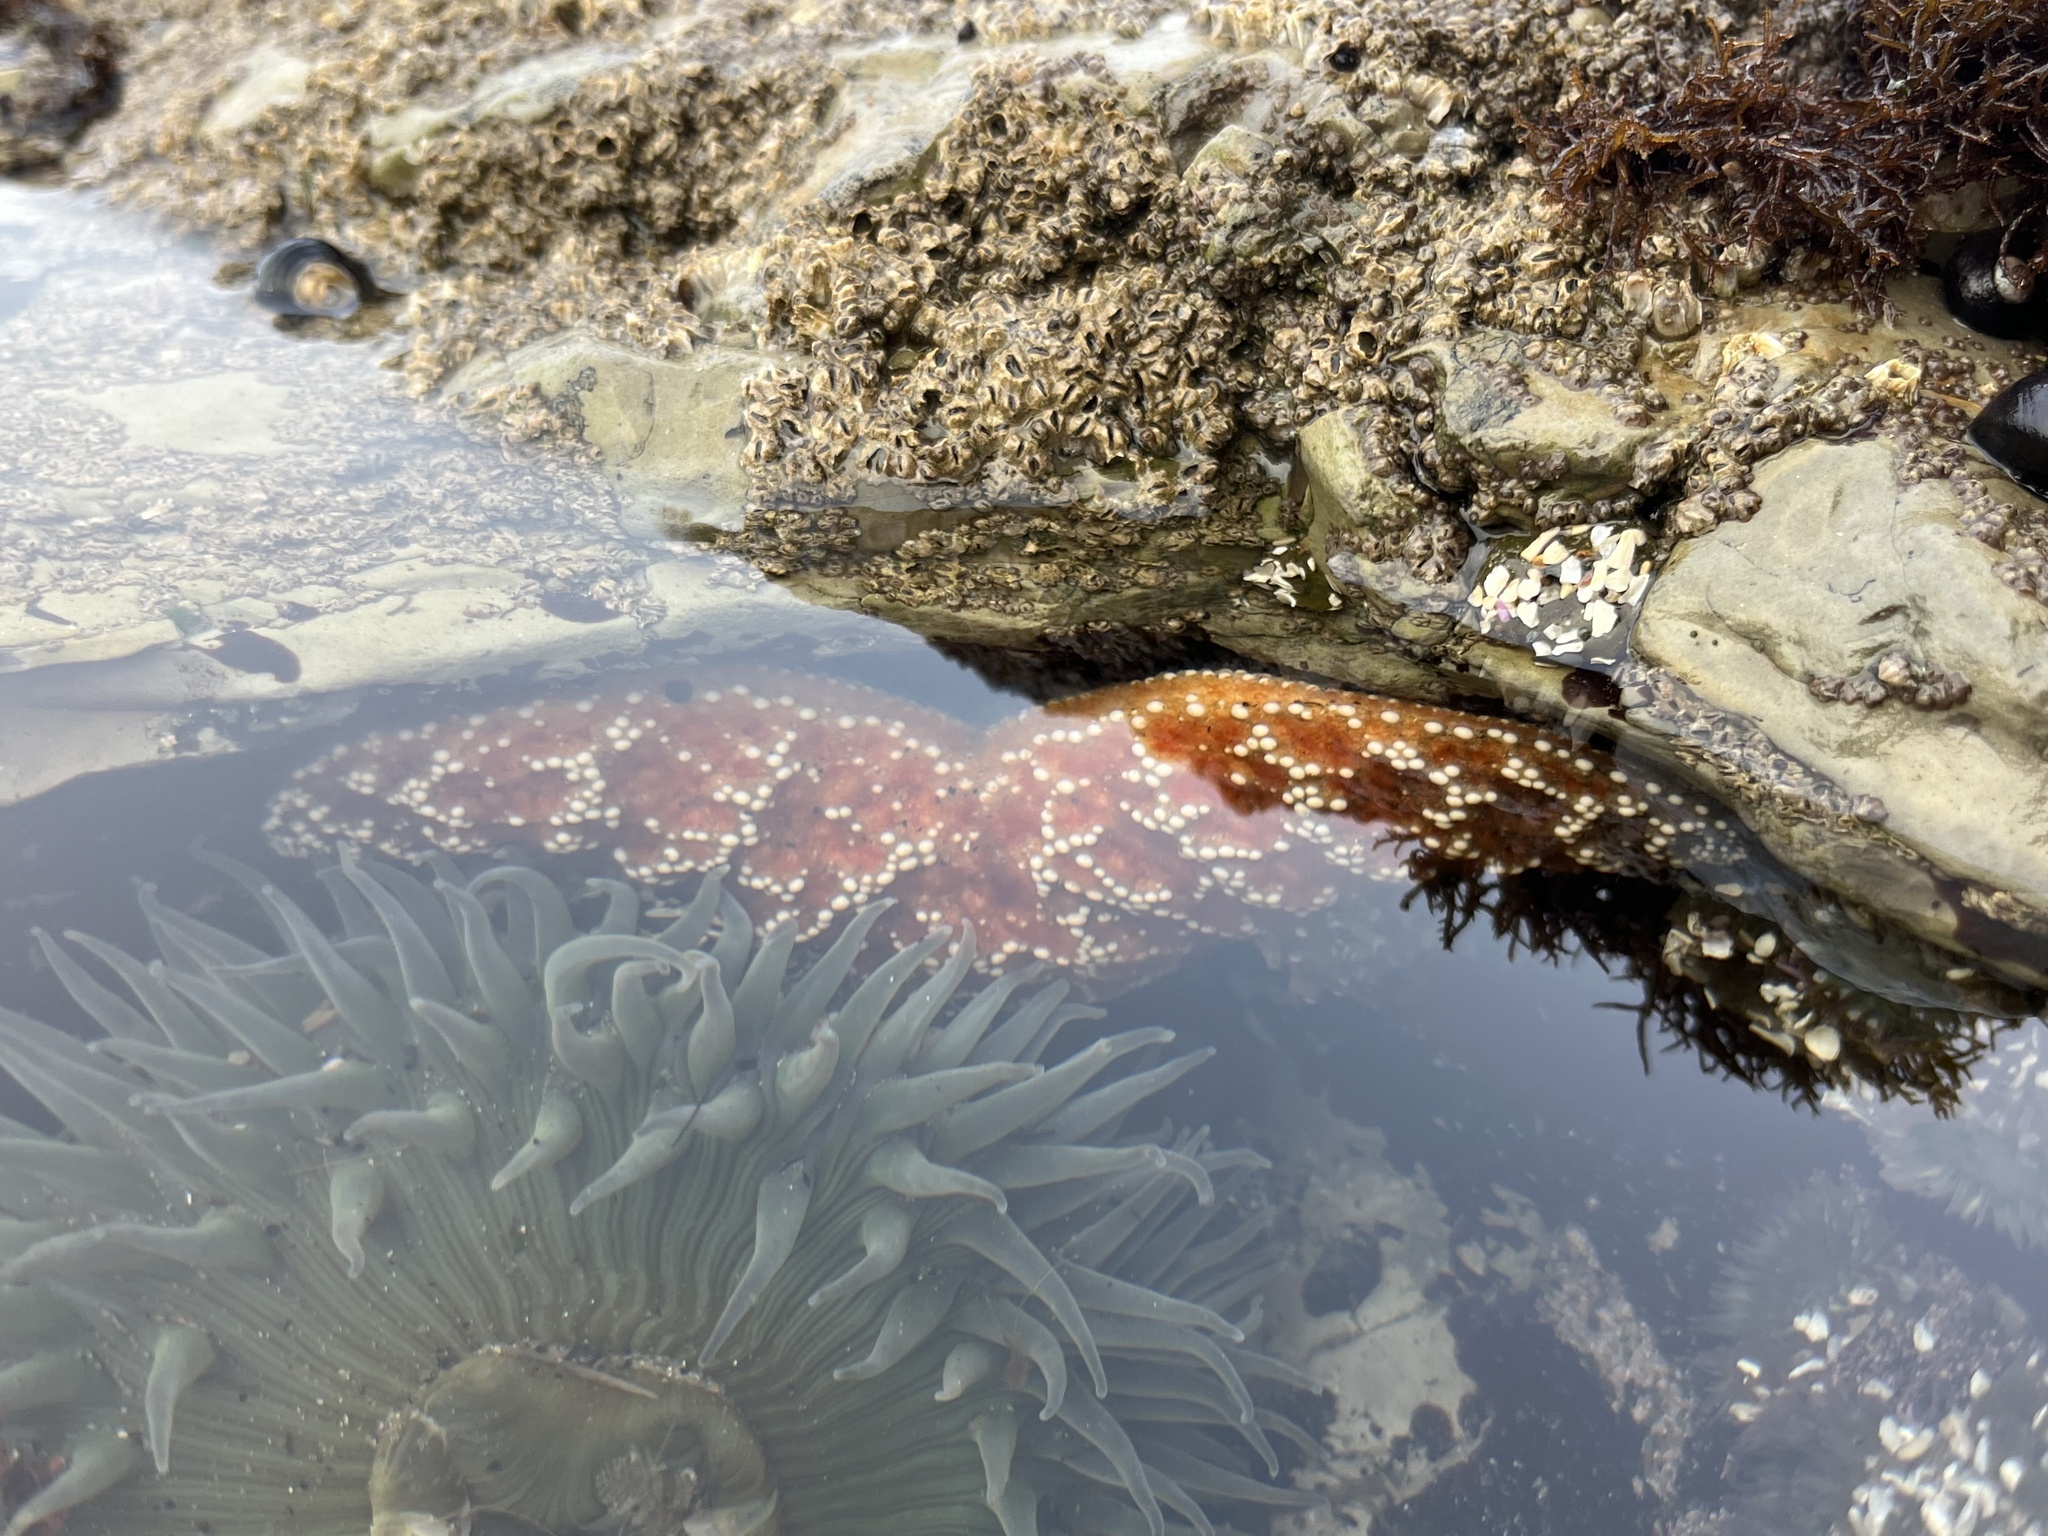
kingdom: Animalia
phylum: Echinodermata
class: Asteroidea
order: Forcipulatida
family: Asteriidae
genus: Pisaster
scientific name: Pisaster ochraceus
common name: Ochre stars
